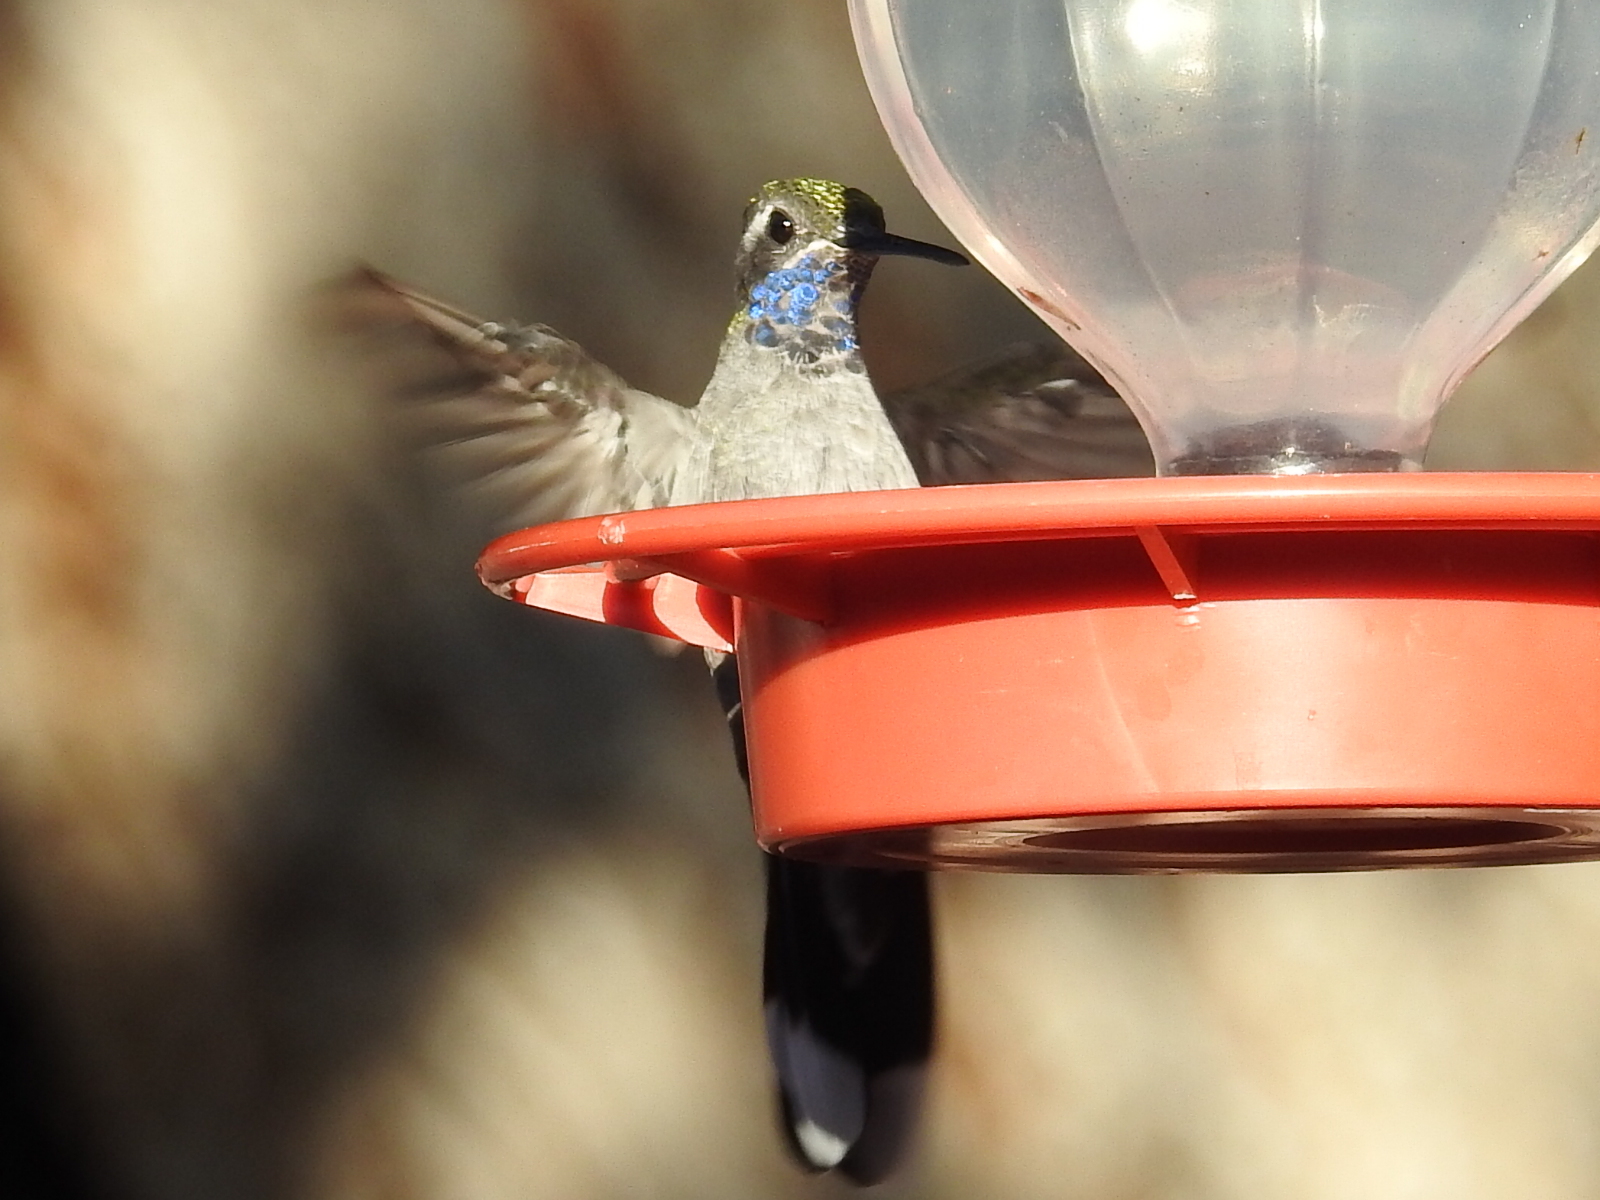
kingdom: Animalia
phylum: Chordata
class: Aves
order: Apodiformes
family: Trochilidae
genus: Lampornis
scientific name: Lampornis clemenciae
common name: Blue-throated mountaingem
